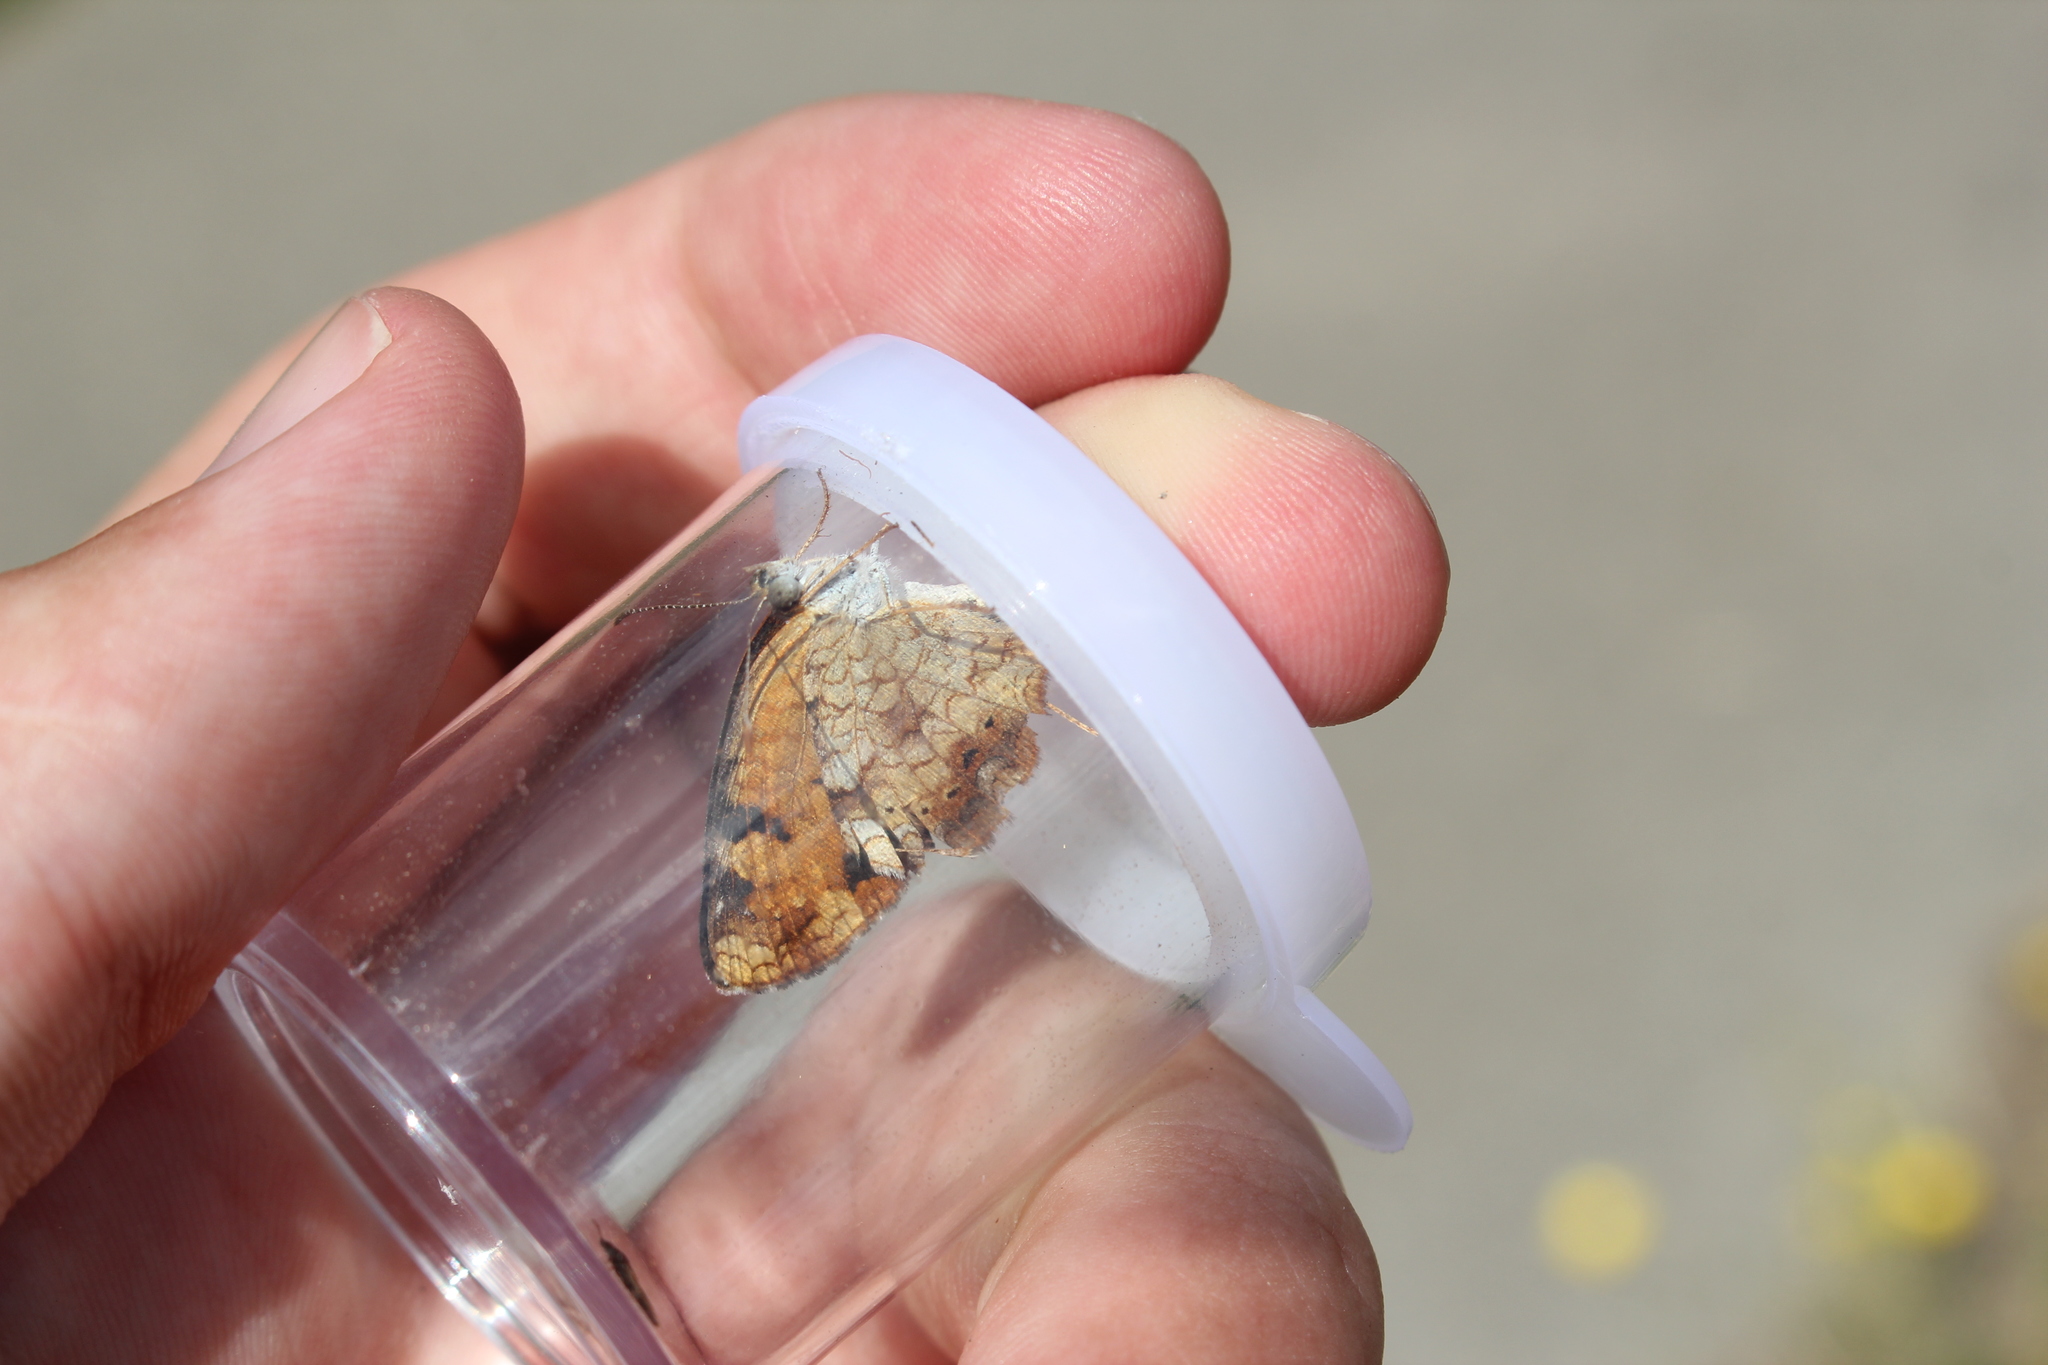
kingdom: Animalia
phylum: Arthropoda
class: Insecta
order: Lepidoptera
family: Nymphalidae
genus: Phyciodes
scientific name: Phyciodes tharos
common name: Pearl crescent
